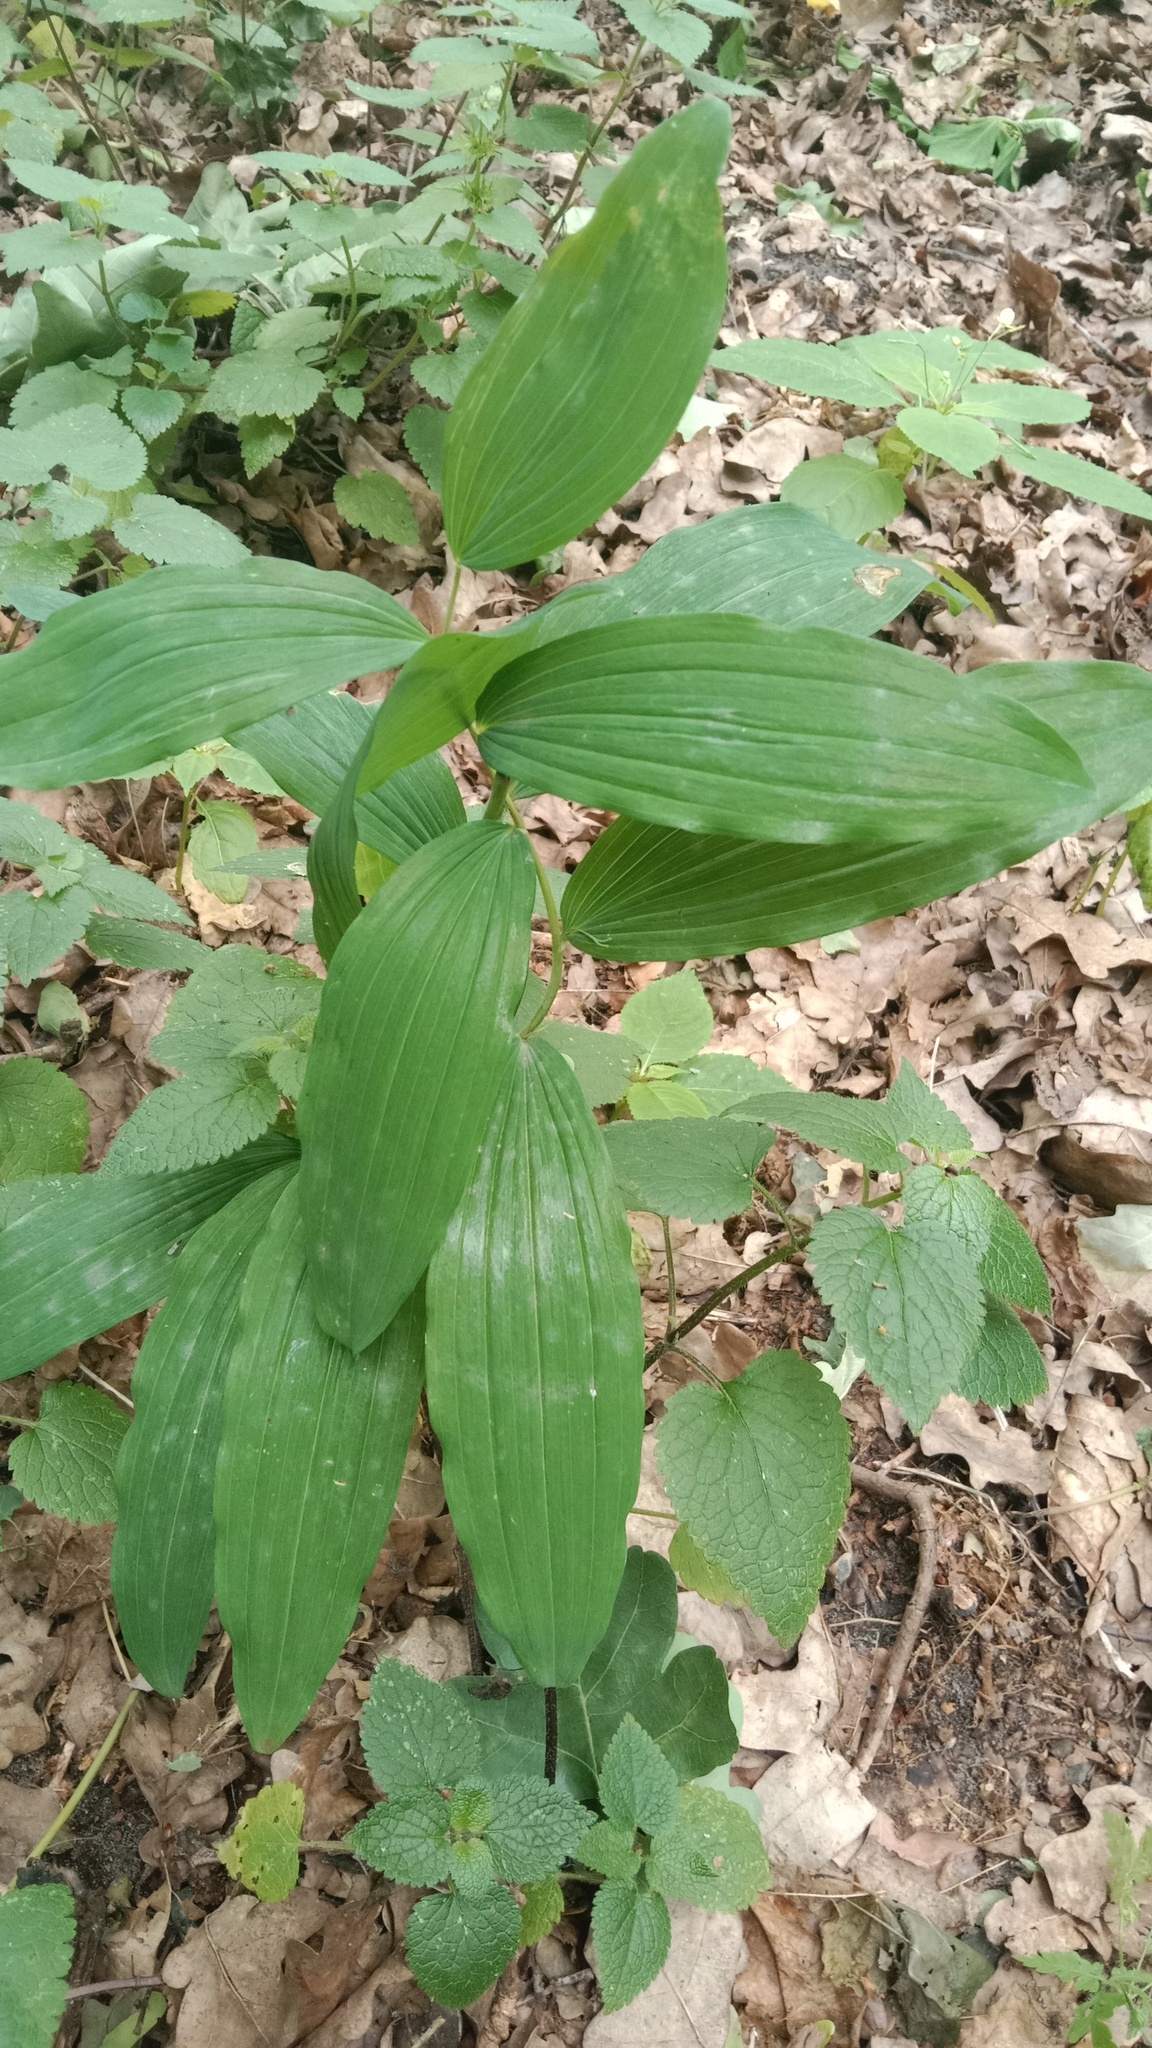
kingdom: Plantae
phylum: Tracheophyta
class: Liliopsida
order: Asparagales
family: Asparagaceae
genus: Polygonatum
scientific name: Polygonatum multiflorum
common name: Solomon's-seal
